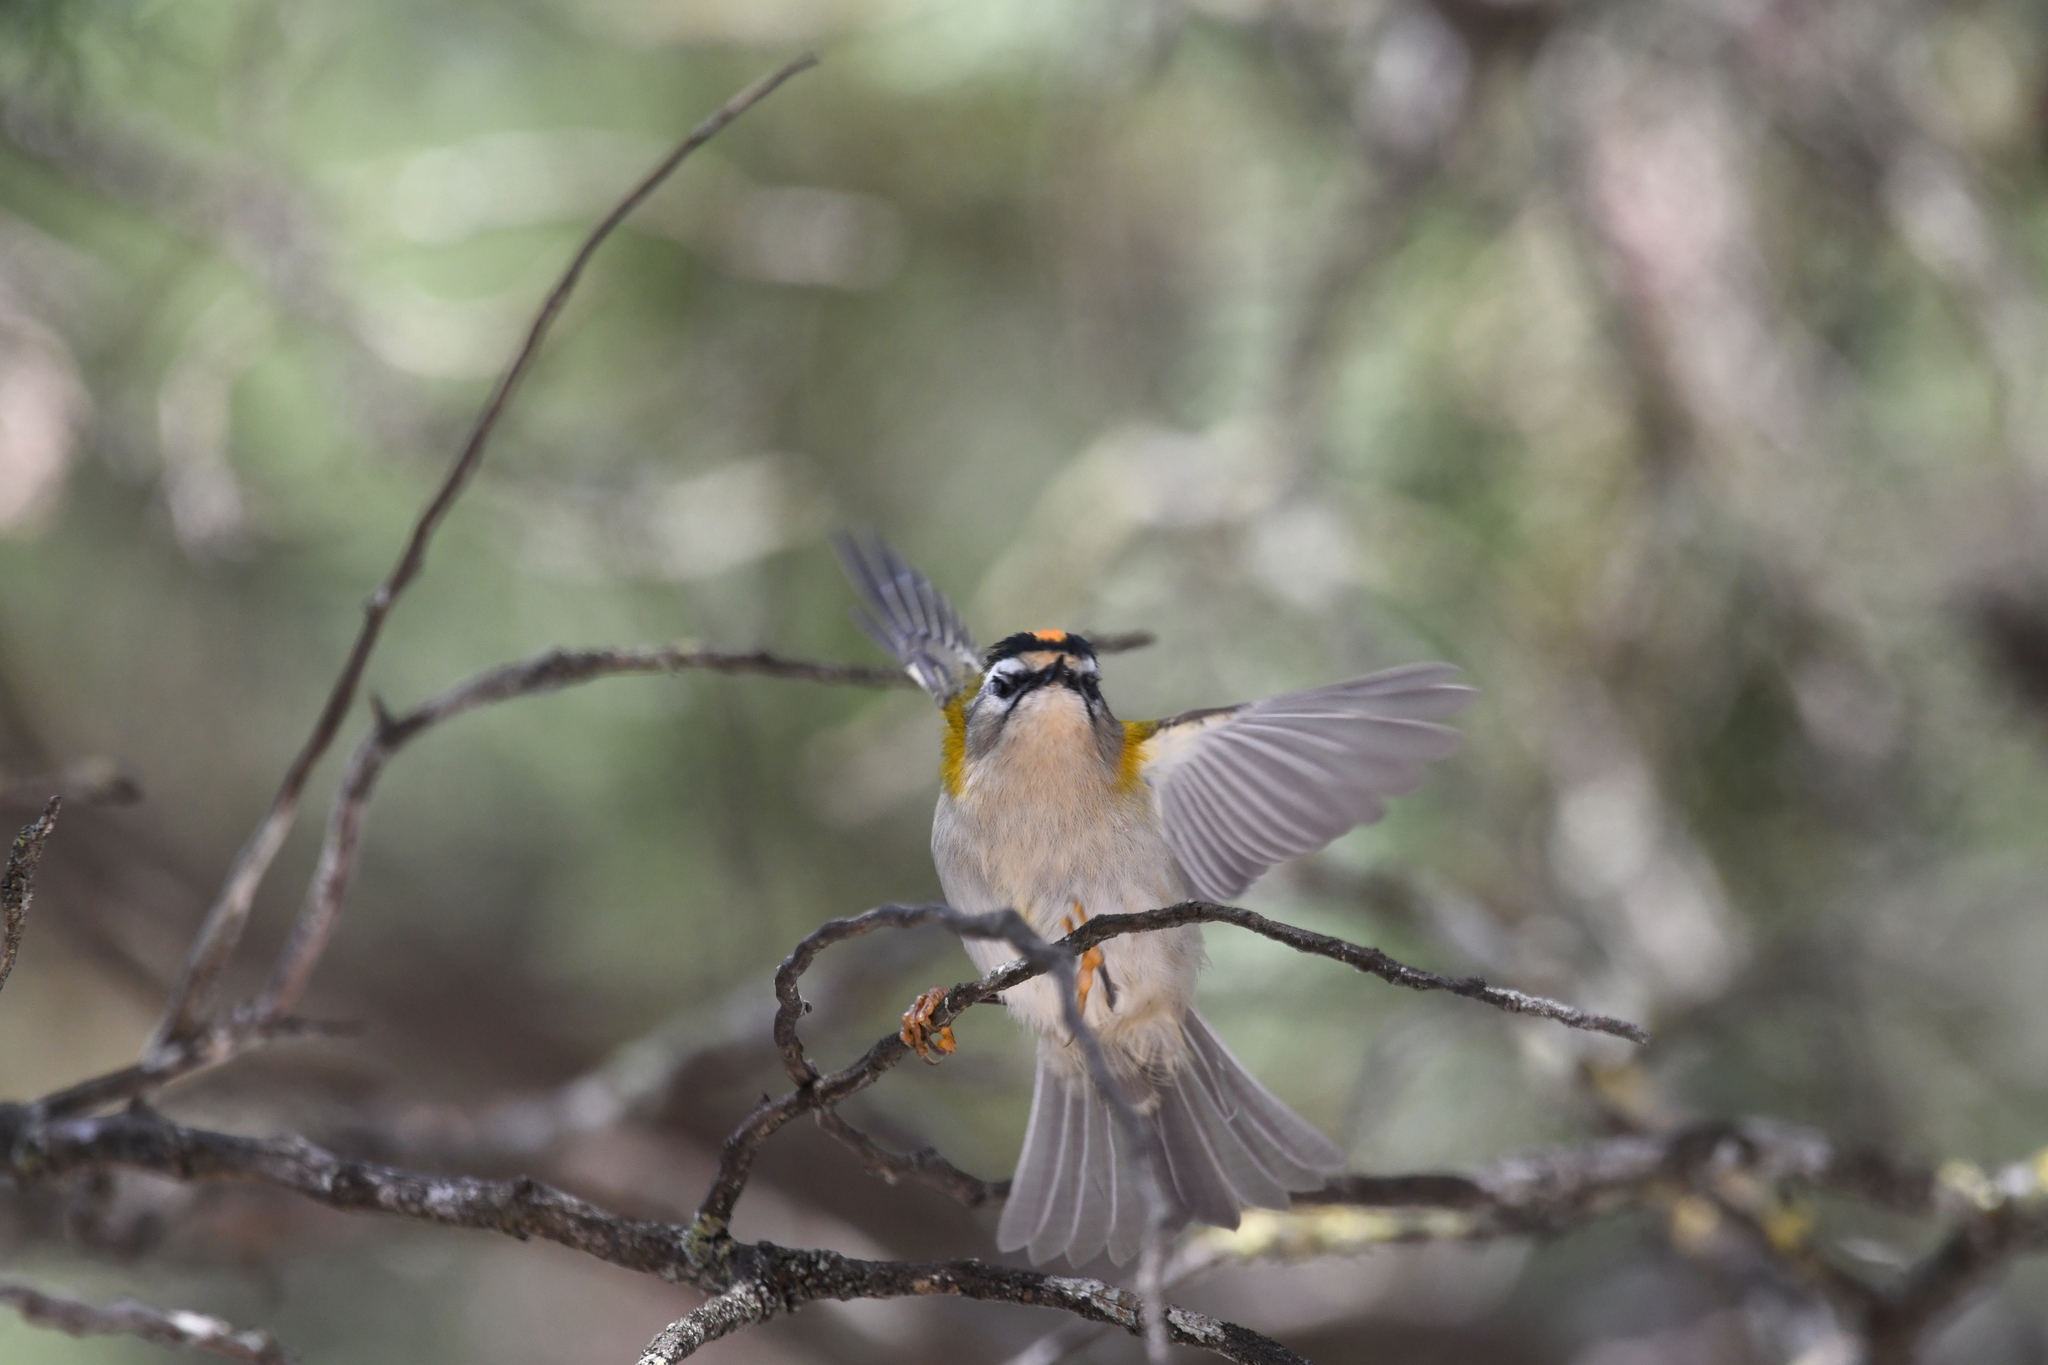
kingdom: Animalia
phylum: Chordata
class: Aves
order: Passeriformes
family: Regulidae
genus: Regulus
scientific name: Regulus ignicapilla
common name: Firecrest
